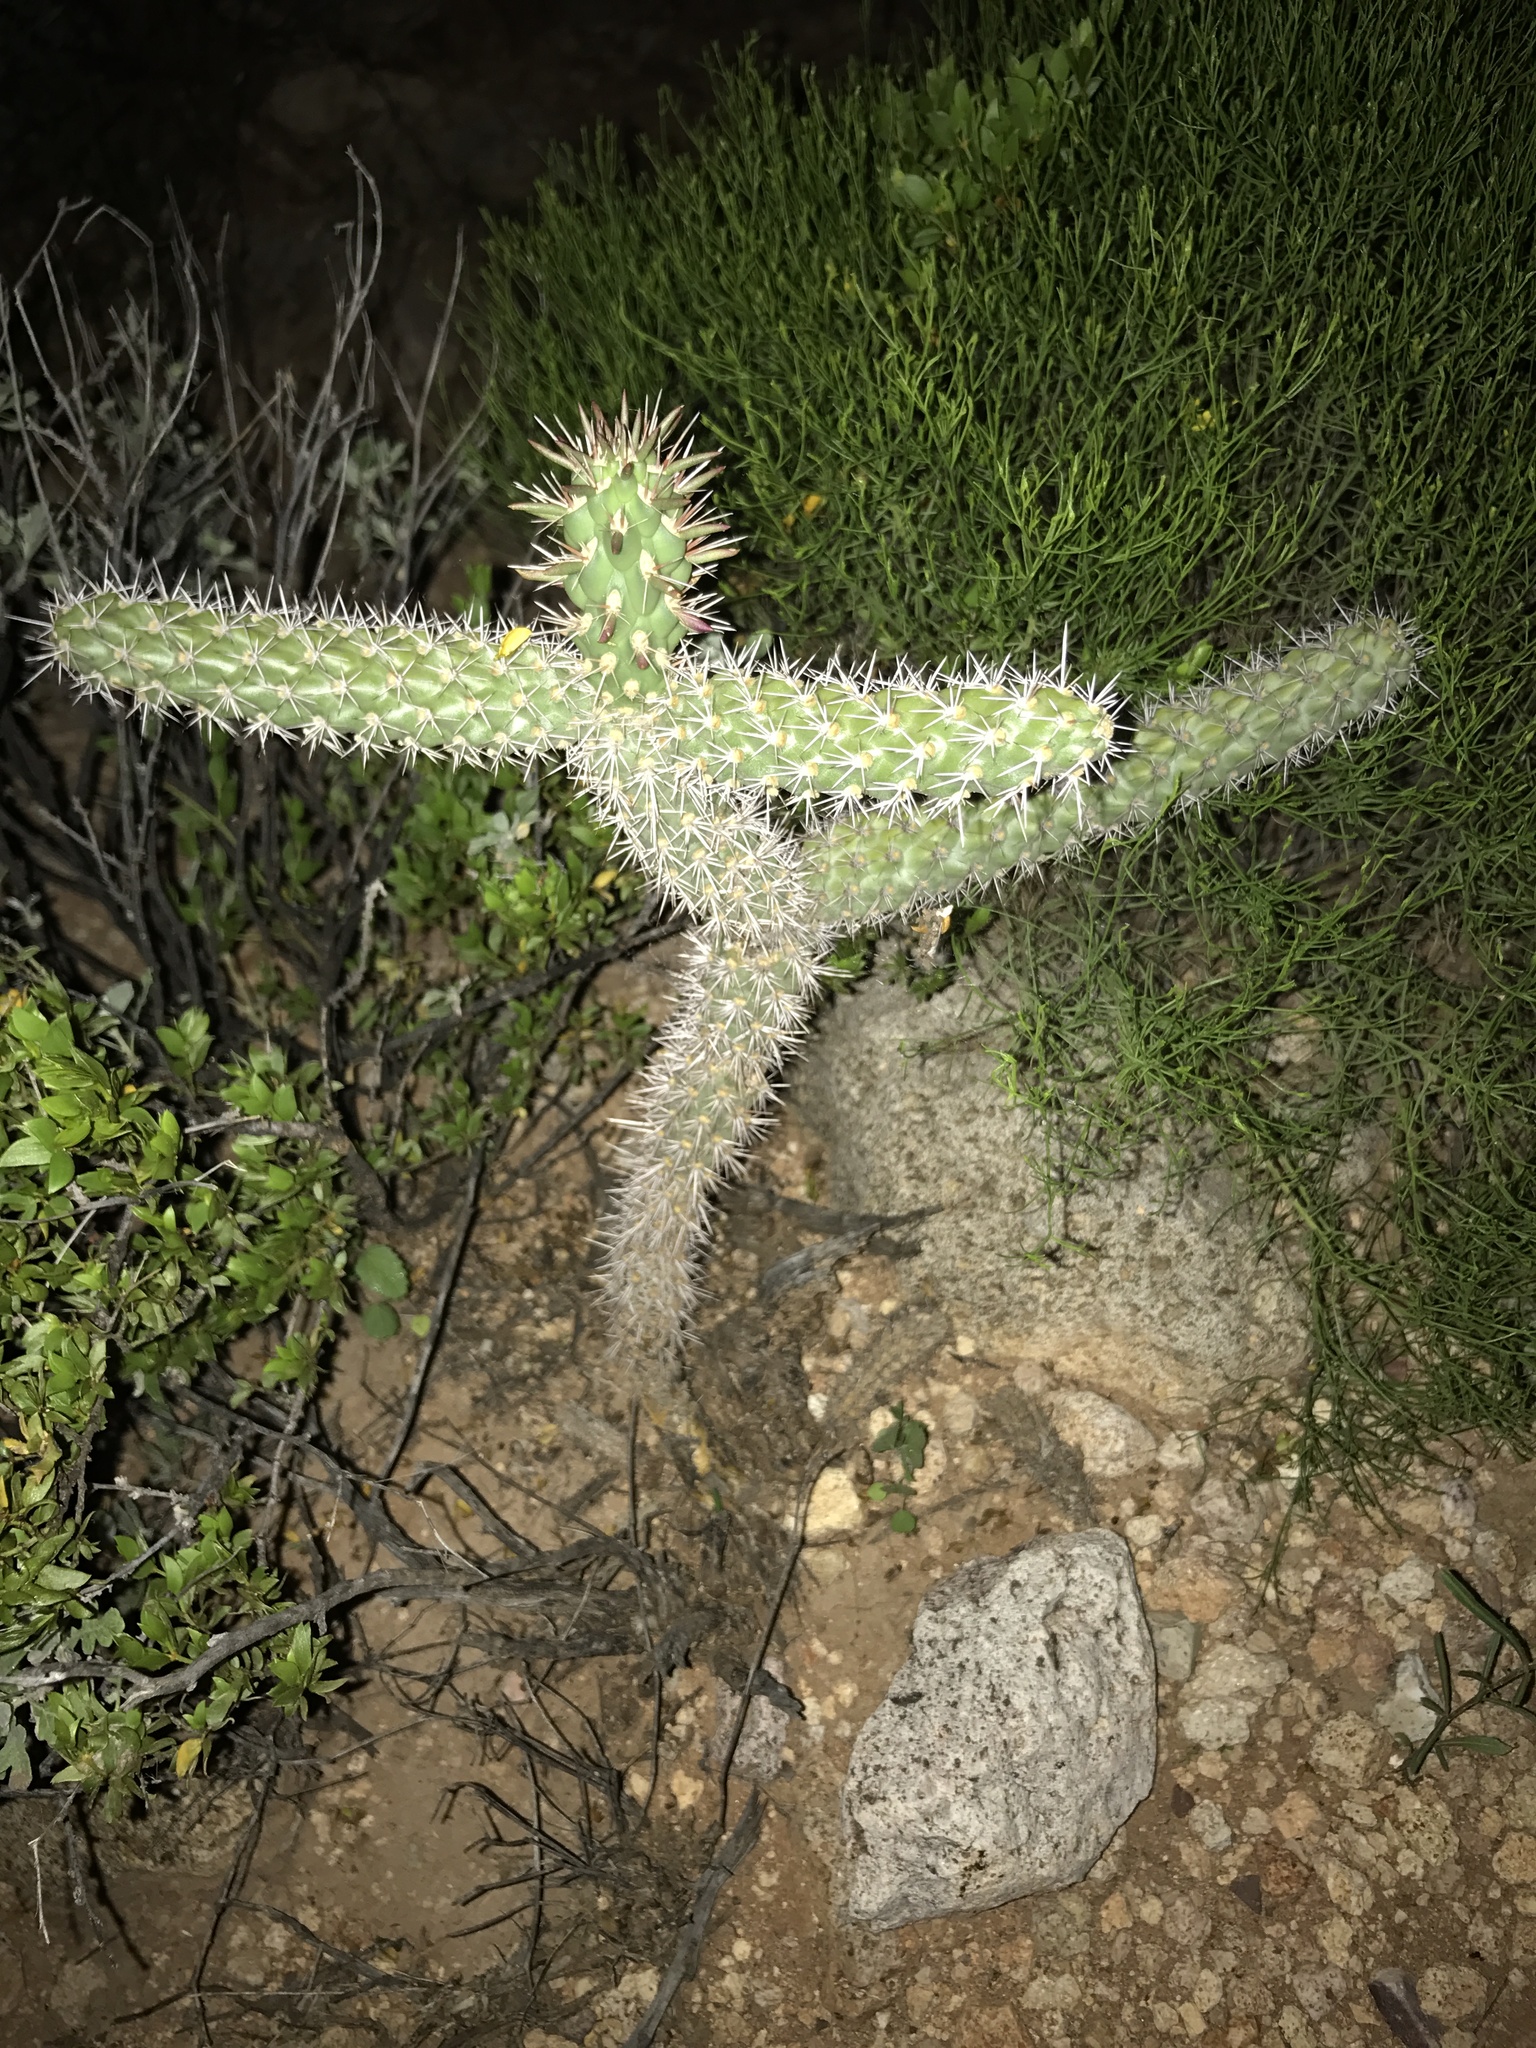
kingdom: Plantae
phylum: Tracheophyta
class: Magnoliopsida
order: Caryophyllales
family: Cactaceae
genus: Cylindropuntia
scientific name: Cylindropuntia imbricata
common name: Candelabrum cactus
